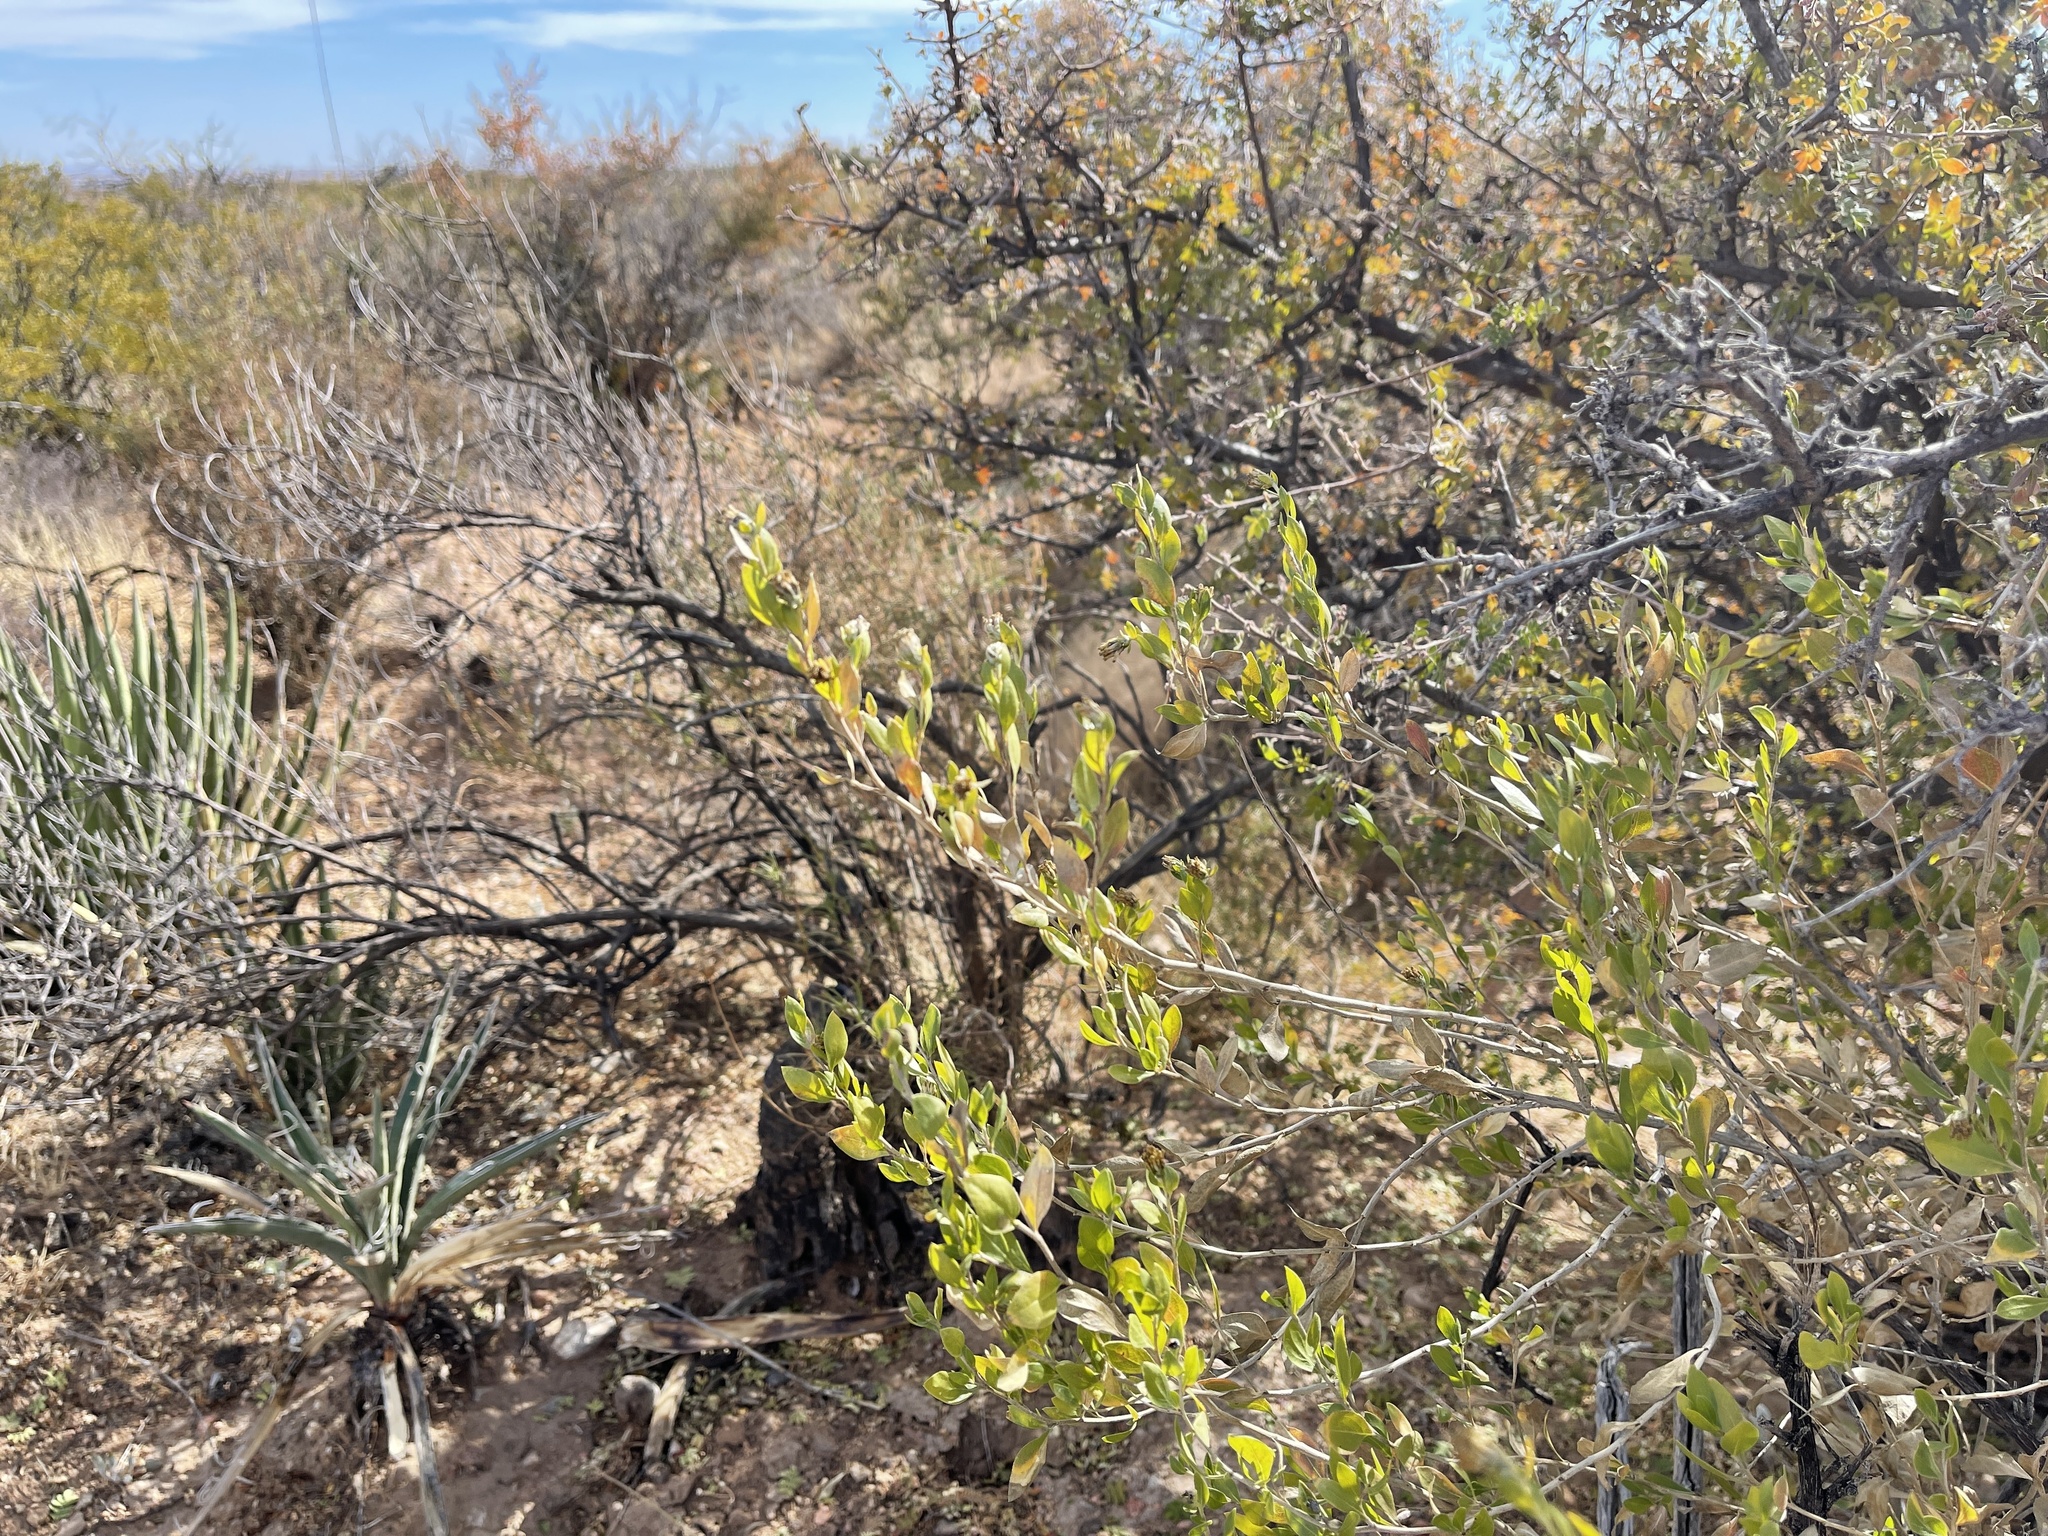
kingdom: Plantae
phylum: Tracheophyta
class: Magnoliopsida
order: Asterales
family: Asteraceae
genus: Flourensia
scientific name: Flourensia cernua
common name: Varnishbush
